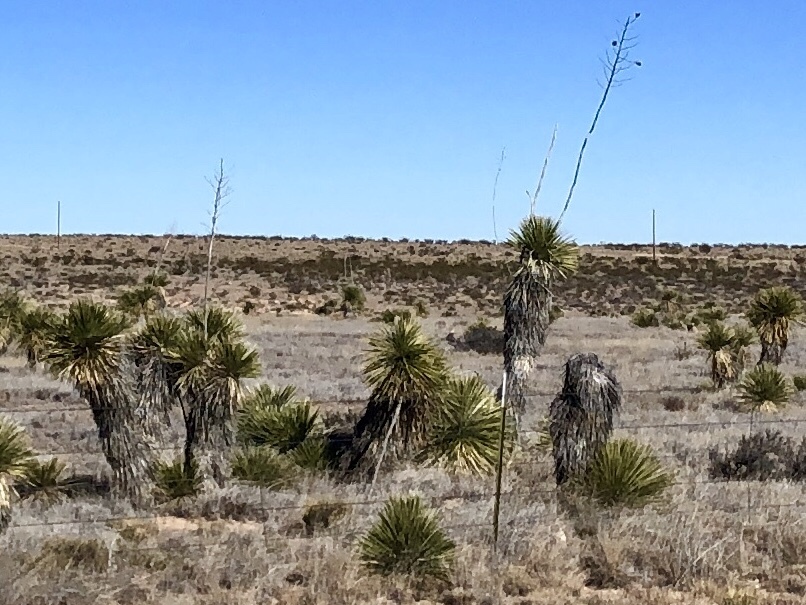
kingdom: Plantae
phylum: Tracheophyta
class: Liliopsida
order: Asparagales
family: Asparagaceae
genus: Yucca
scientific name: Yucca elata
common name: Palmella
